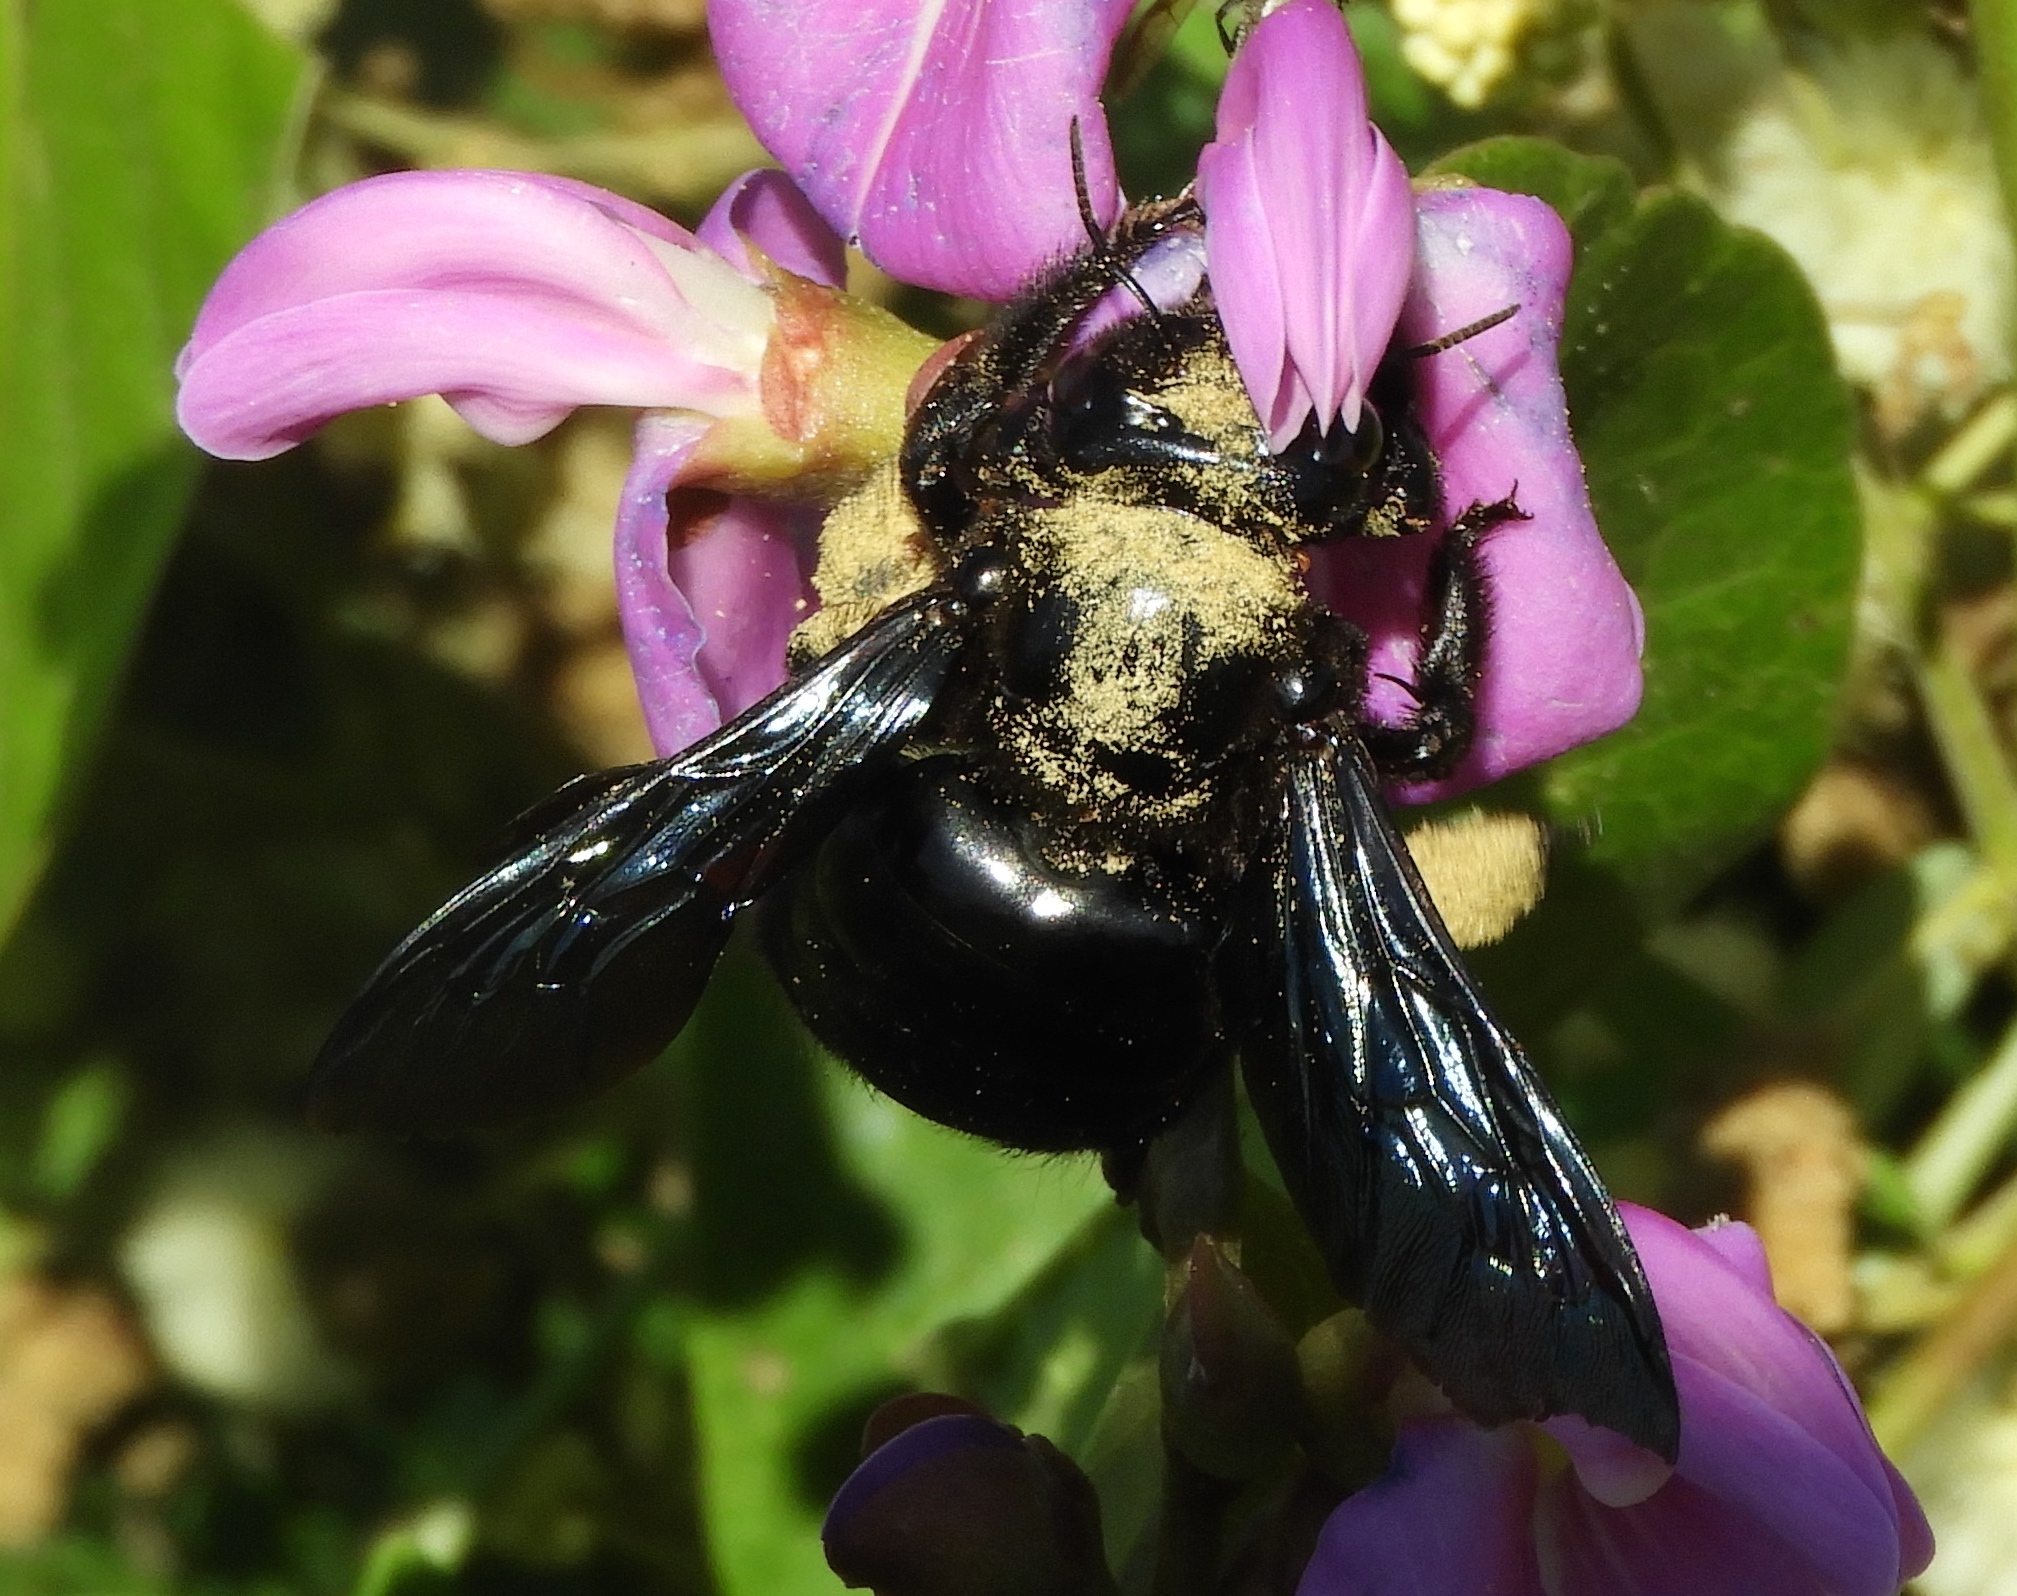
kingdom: Animalia
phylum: Arthropoda
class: Insecta
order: Hymenoptera
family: Apidae
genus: Xylocopa
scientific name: Xylocopa fimbriata
